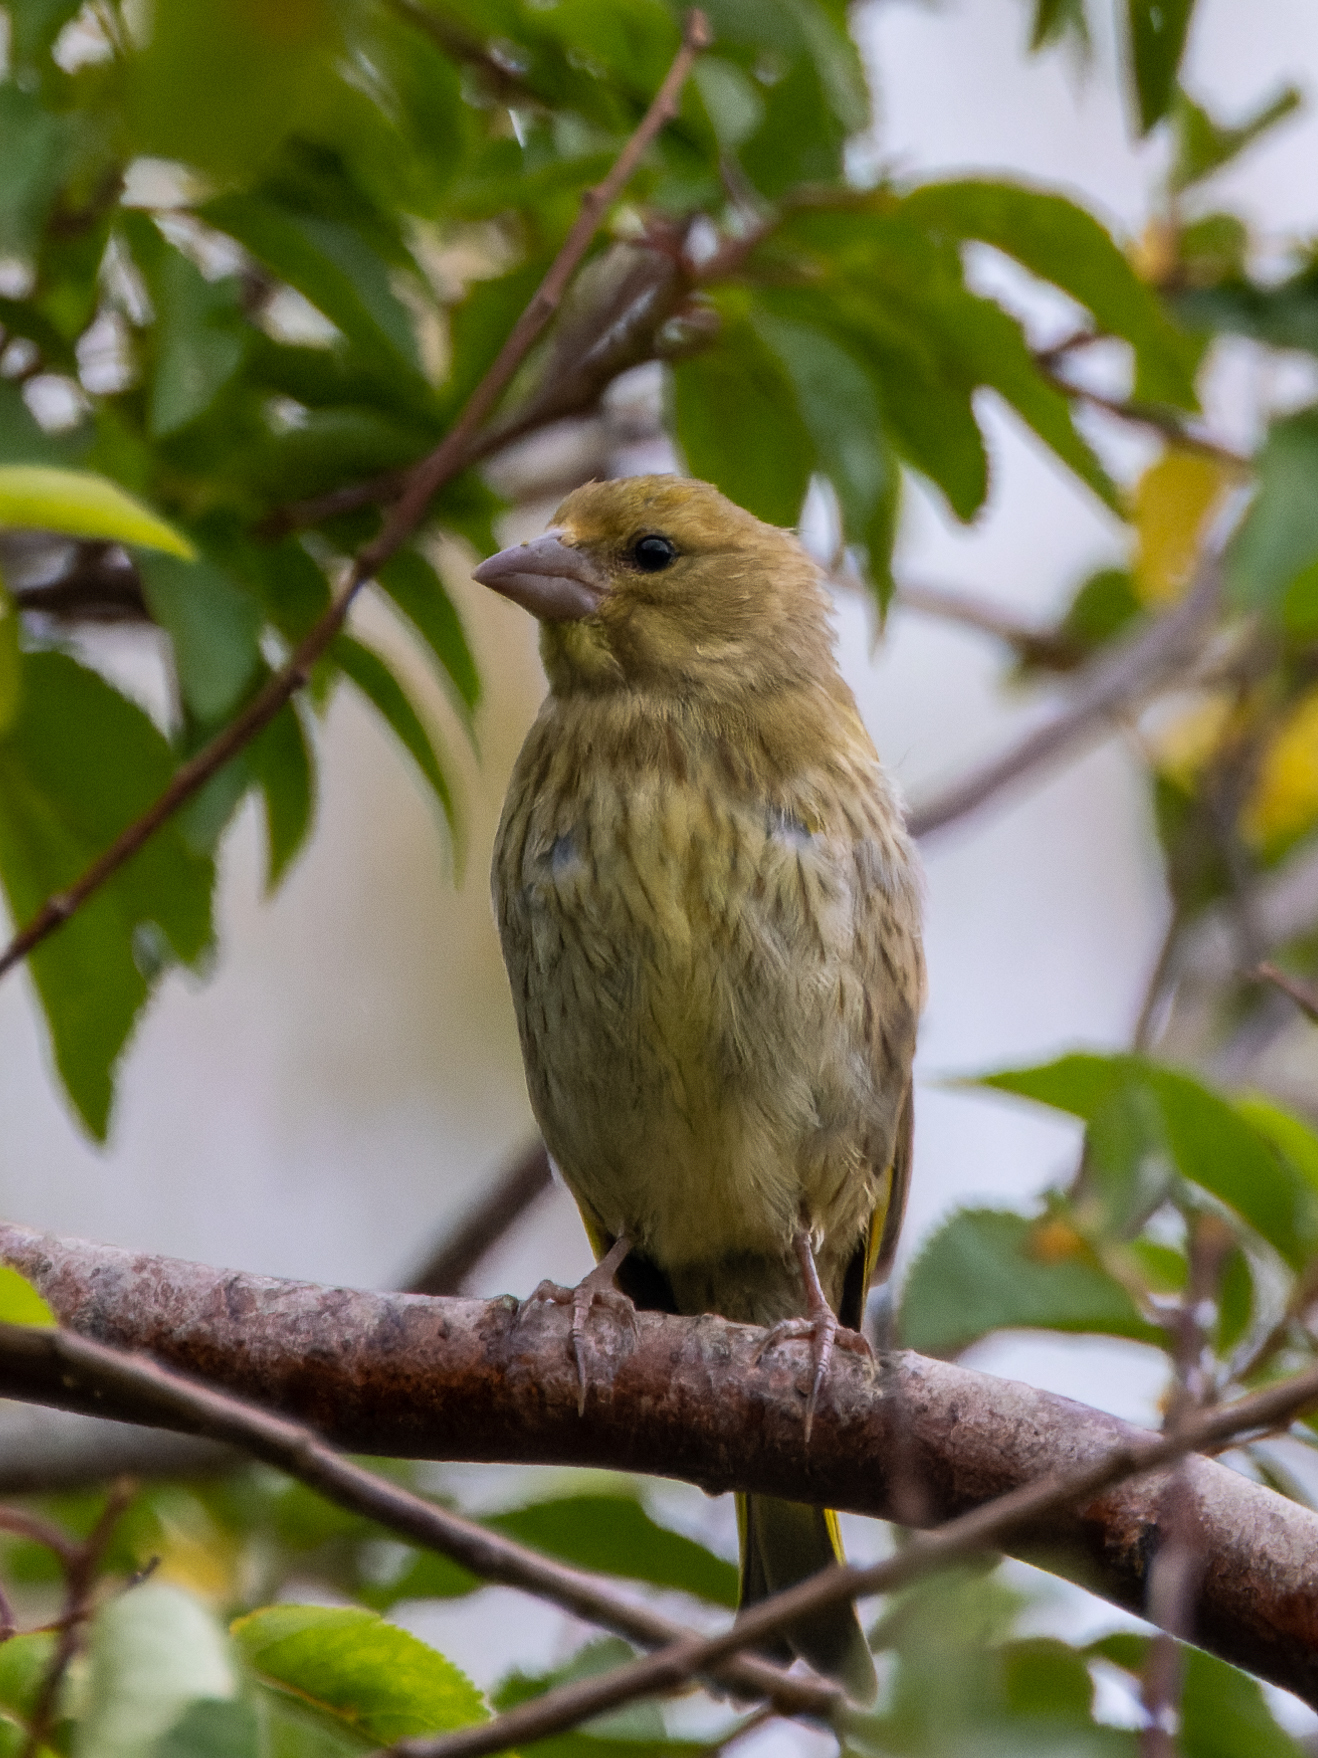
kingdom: Plantae
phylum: Tracheophyta
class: Liliopsida
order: Poales
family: Poaceae
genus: Chloris
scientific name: Chloris chloris
